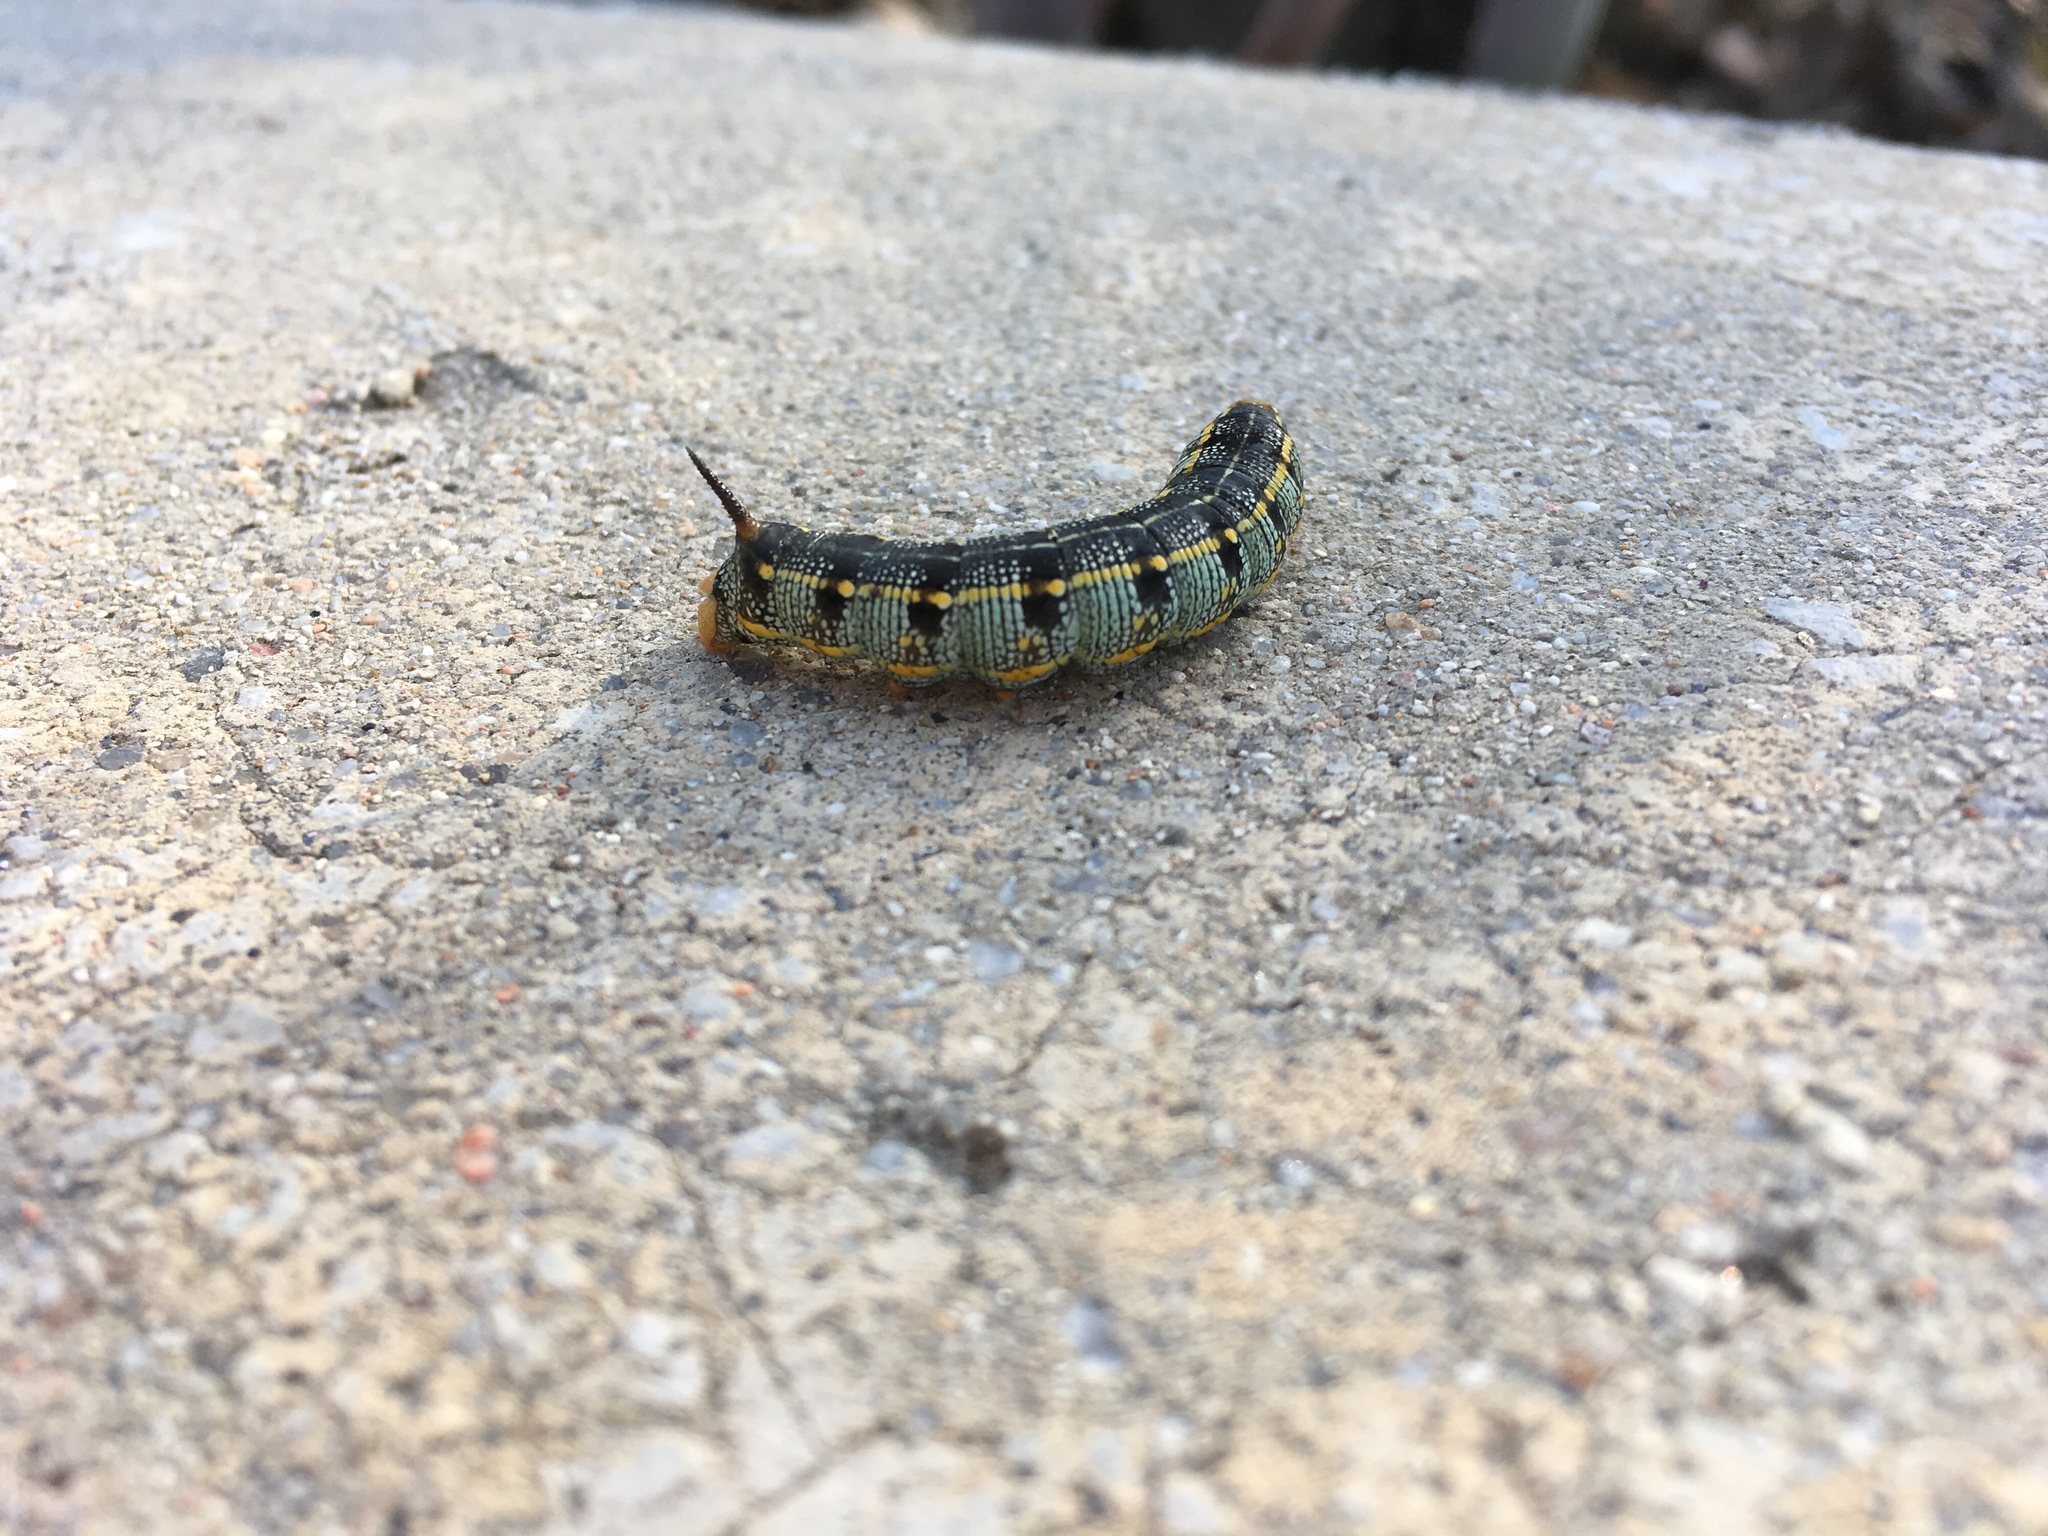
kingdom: Animalia
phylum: Arthropoda
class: Insecta
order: Lepidoptera
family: Sphingidae
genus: Hyles
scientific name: Hyles lineata
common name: White-lined sphinx
